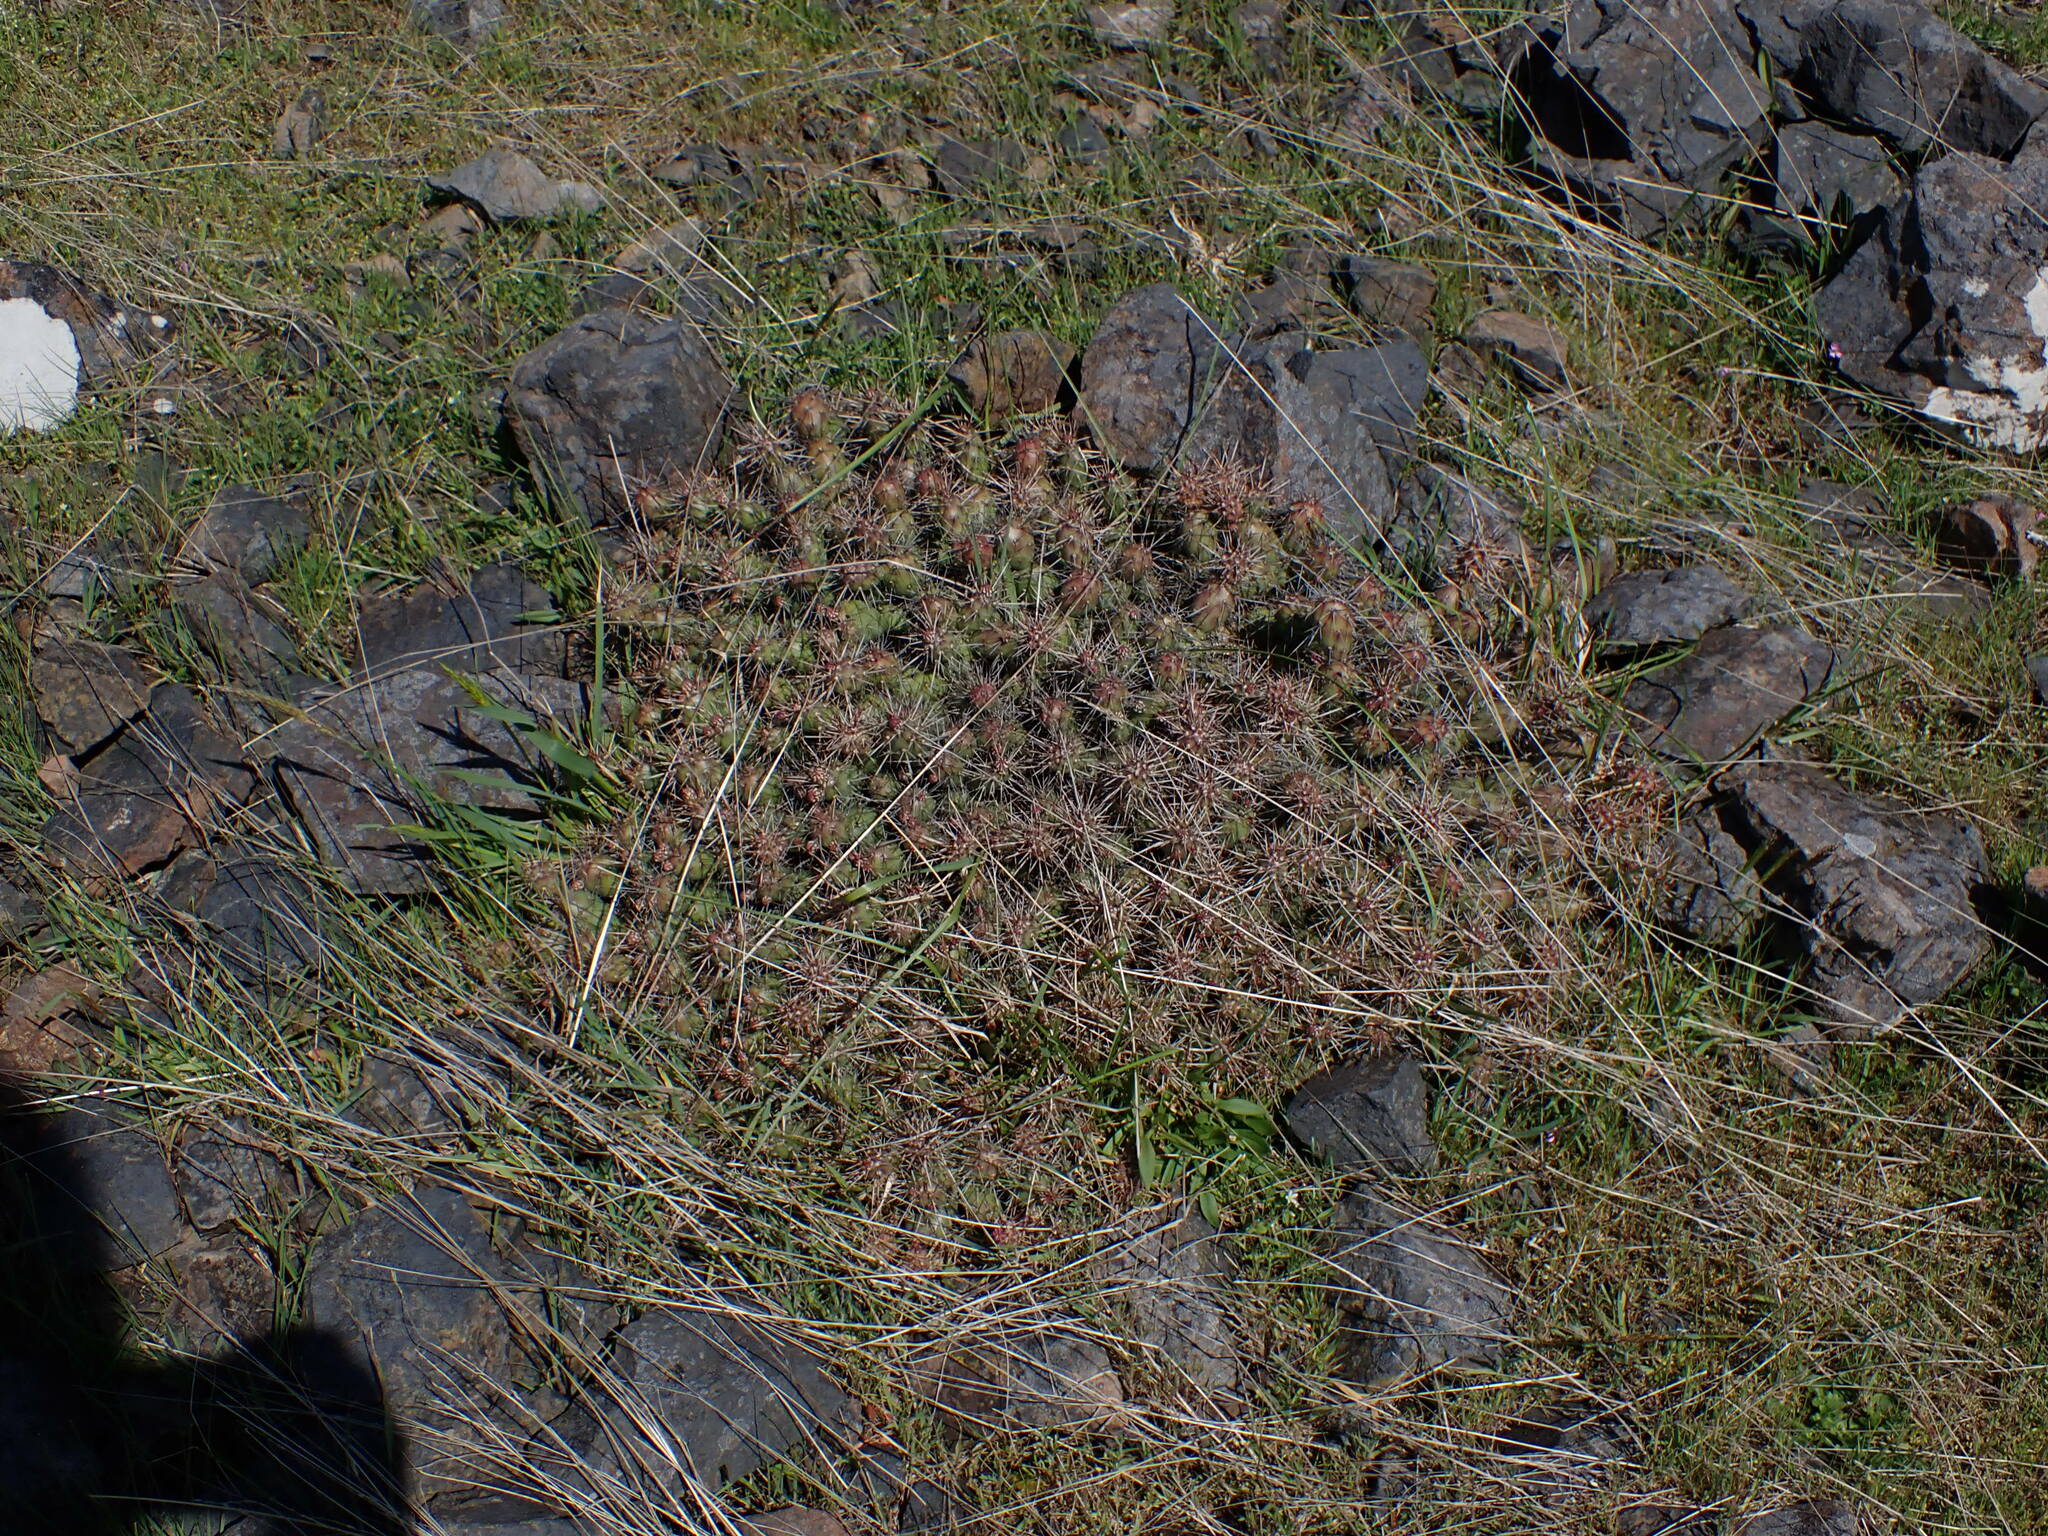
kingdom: Plantae
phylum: Tracheophyta
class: Magnoliopsida
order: Caryophyllales
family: Cactaceae
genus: Opuntia
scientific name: Opuntia fragilis
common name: Brittle cactus
